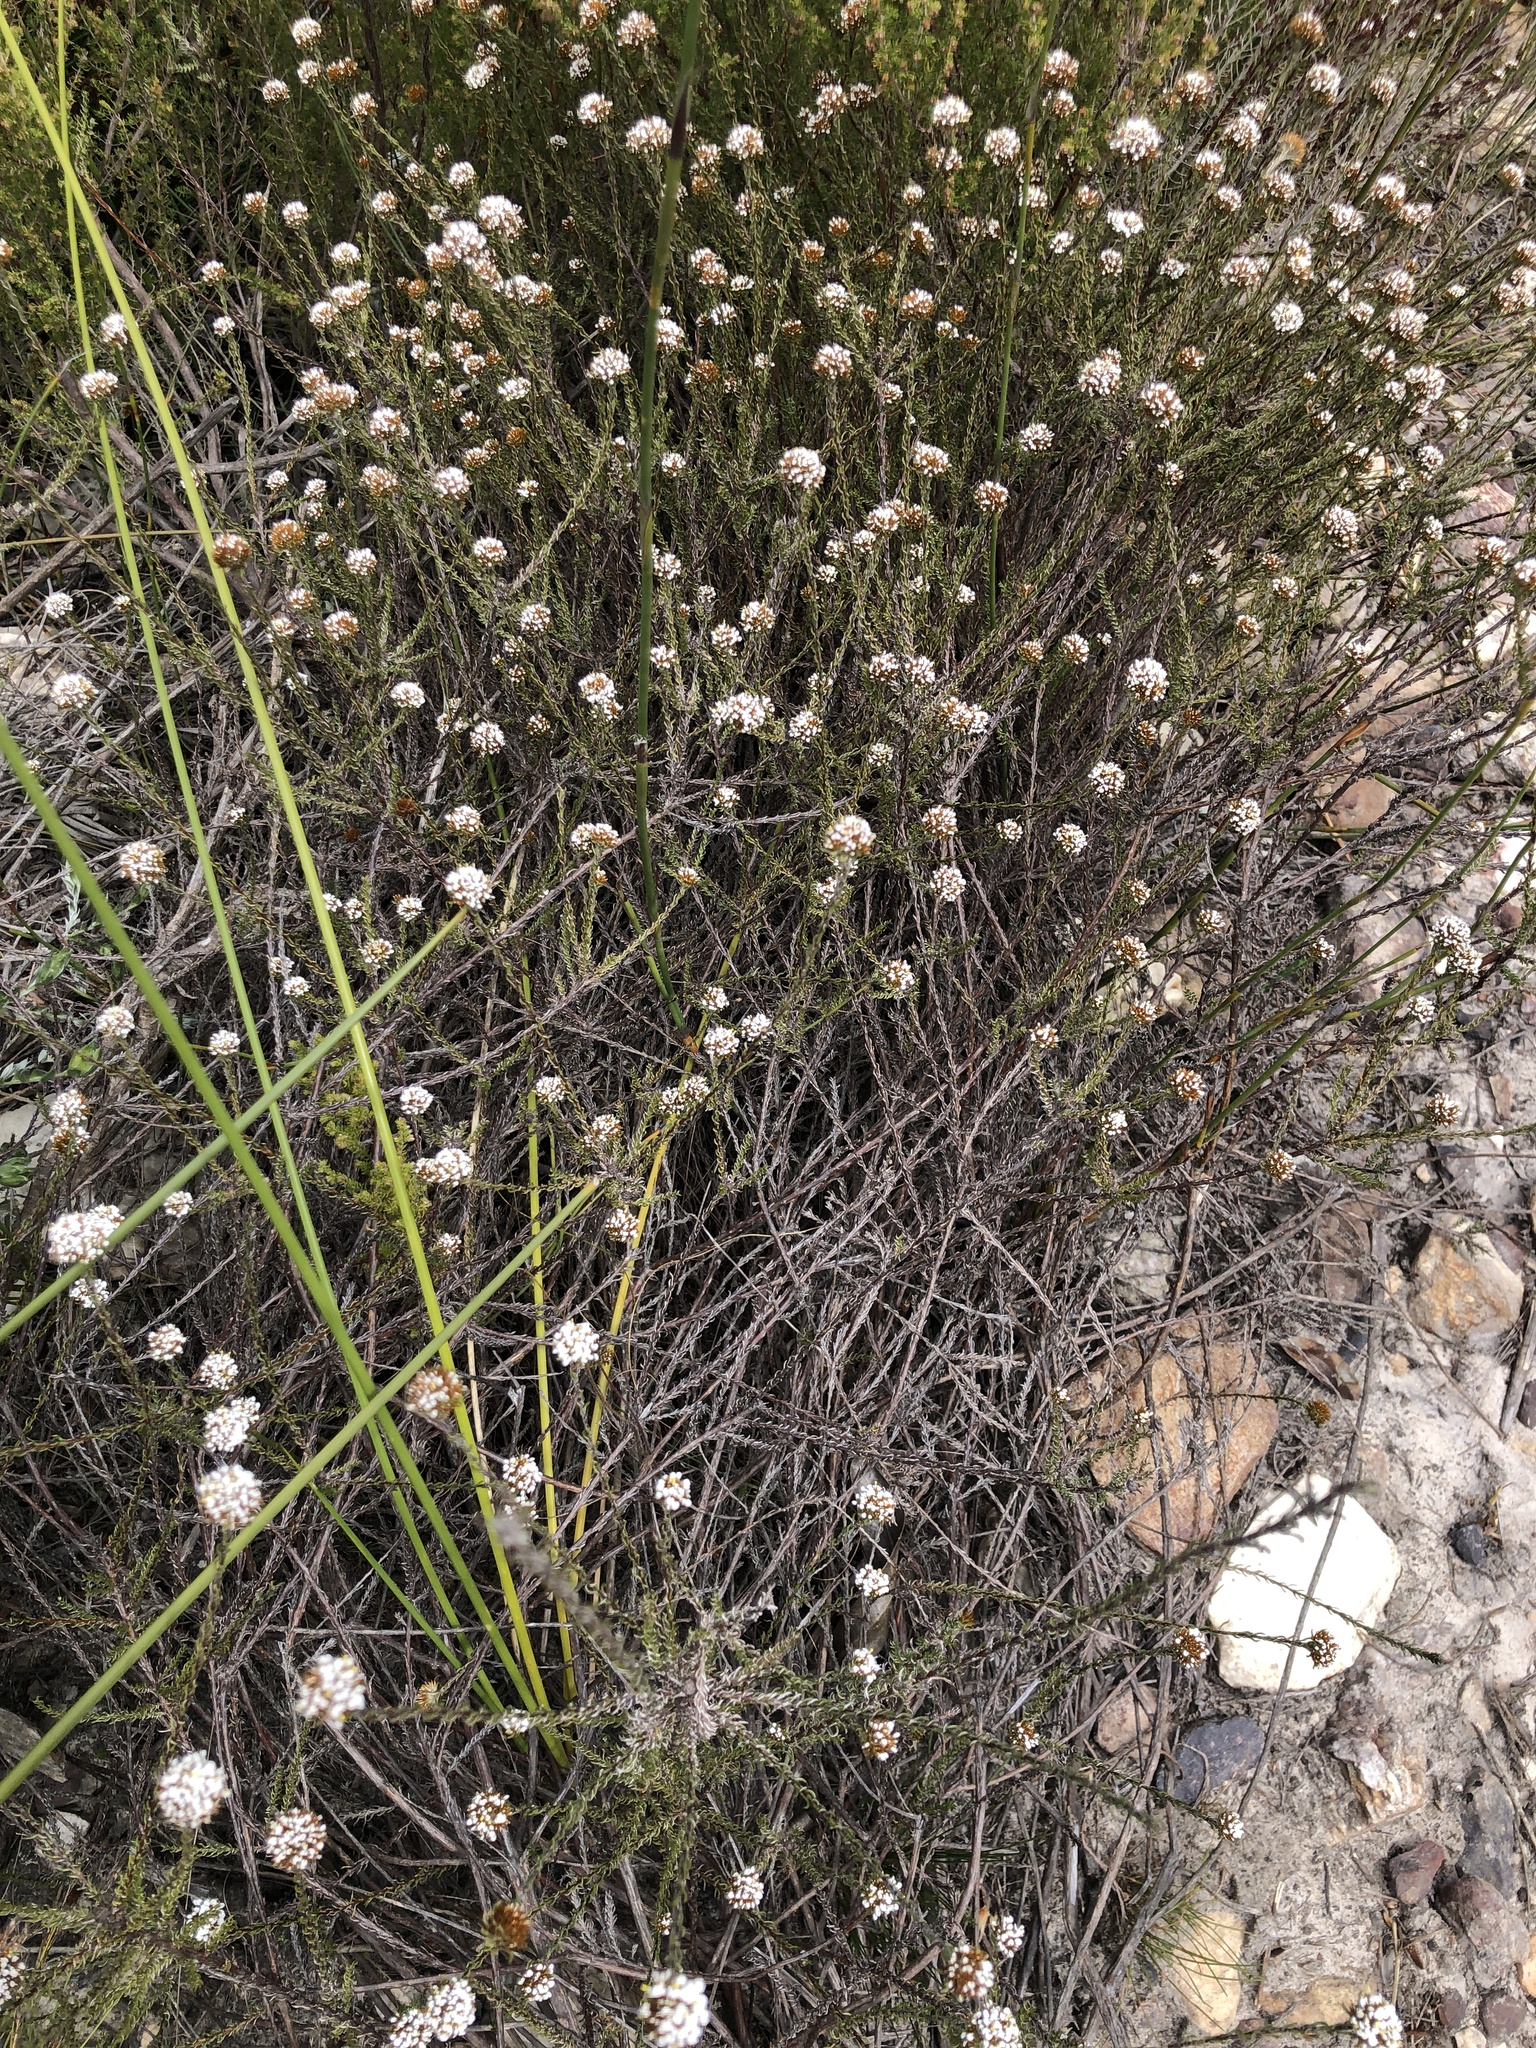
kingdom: Plantae
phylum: Tracheophyta
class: Magnoliopsida
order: Asterales
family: Asteraceae
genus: Disparago
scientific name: Disparago anomala
